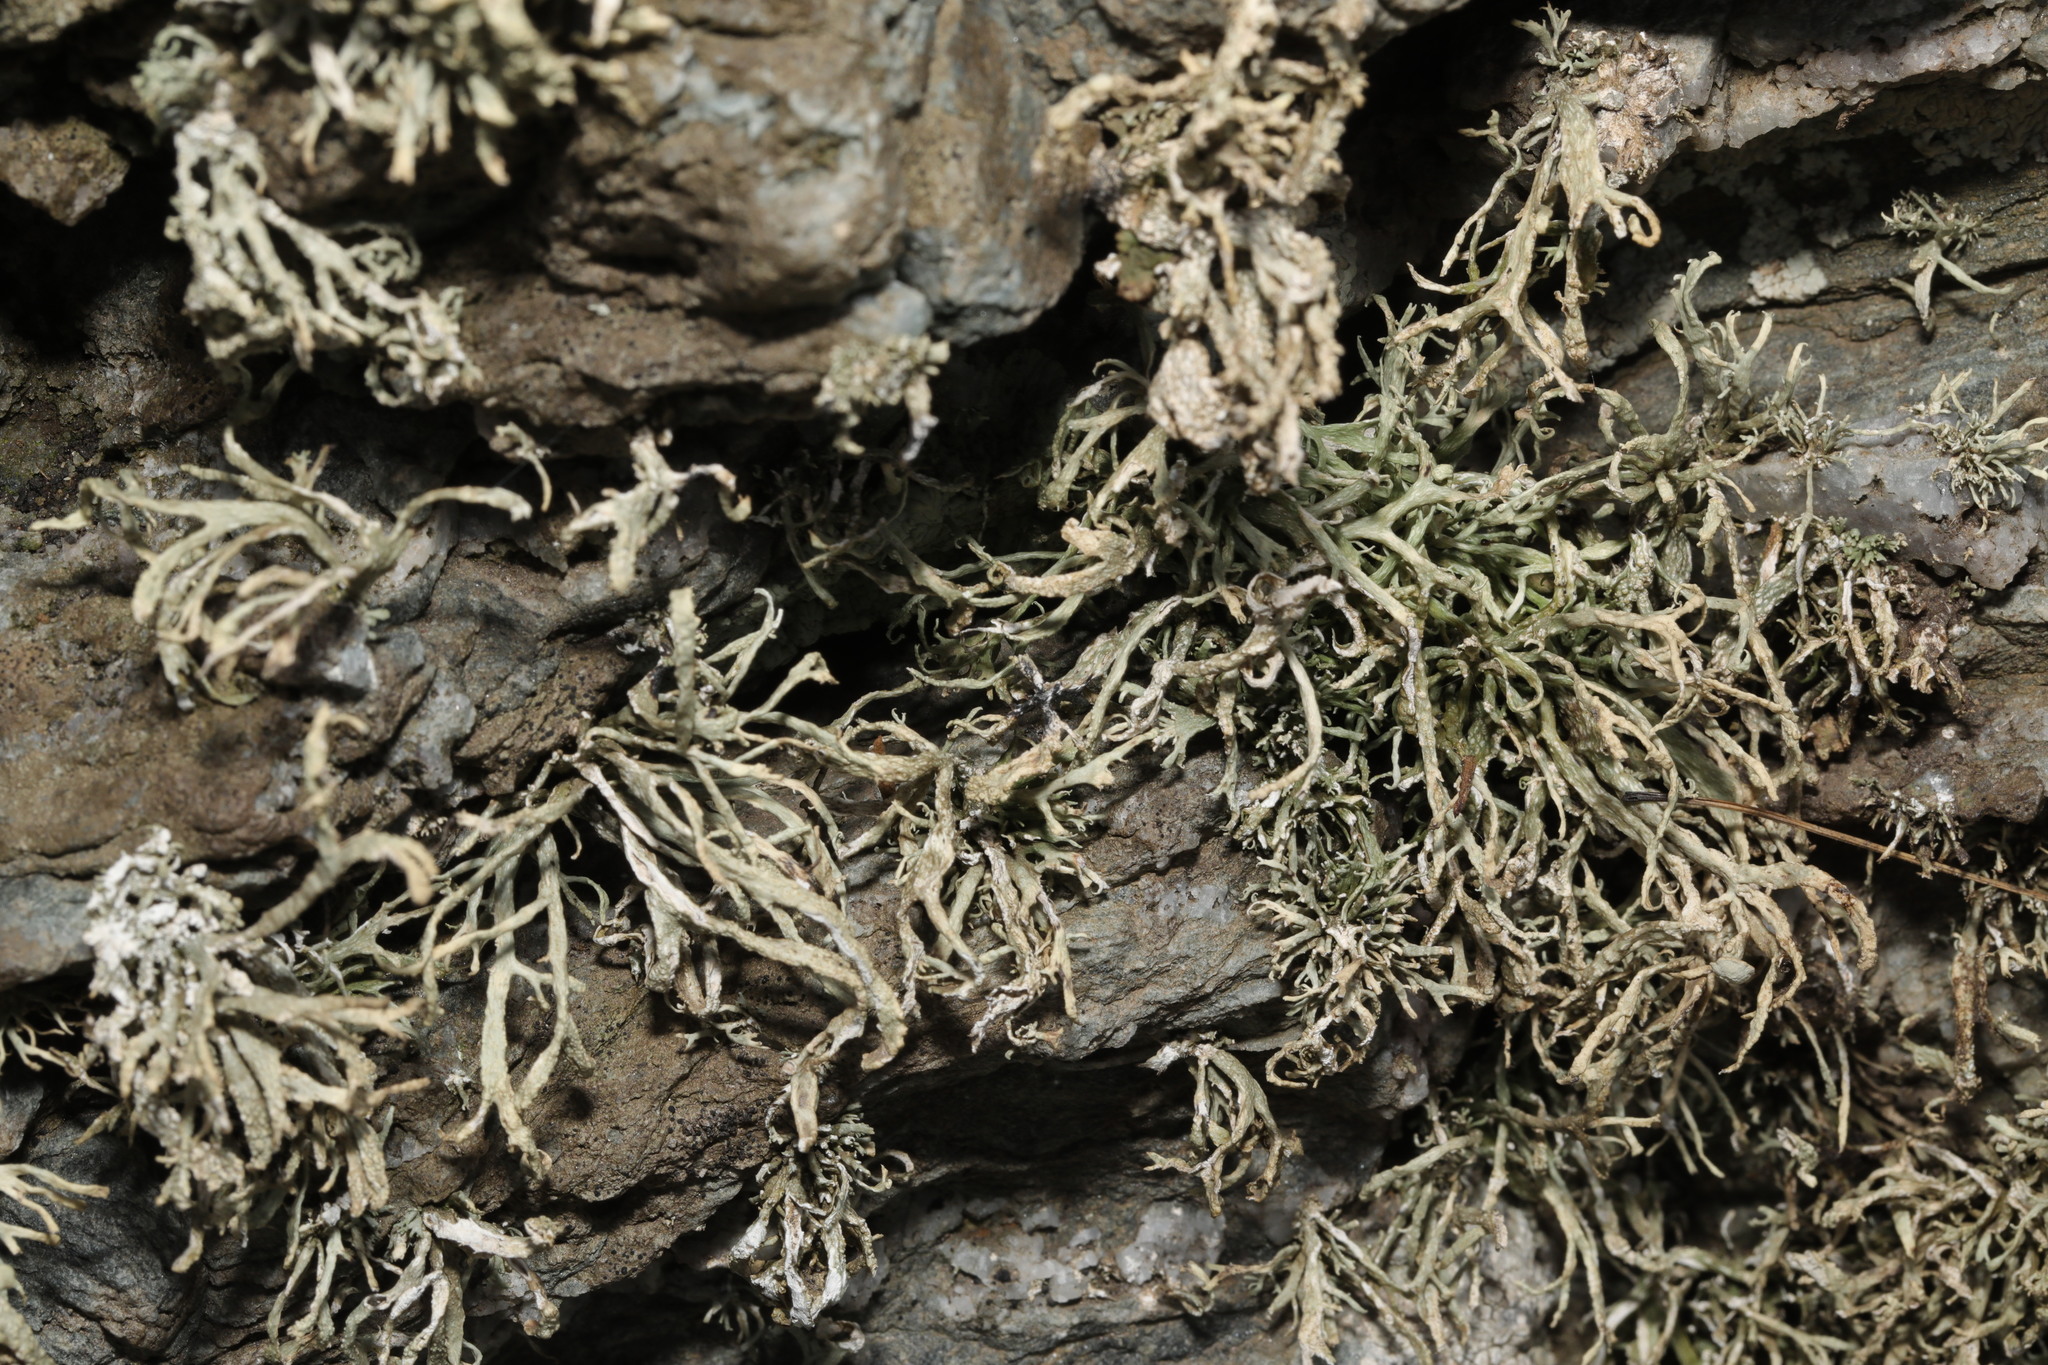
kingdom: Fungi
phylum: Ascomycota
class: Lecanoromycetes
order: Lecanorales
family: Ramalinaceae
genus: Ramalina
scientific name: Ramalina siliquosa
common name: Sea ivory
